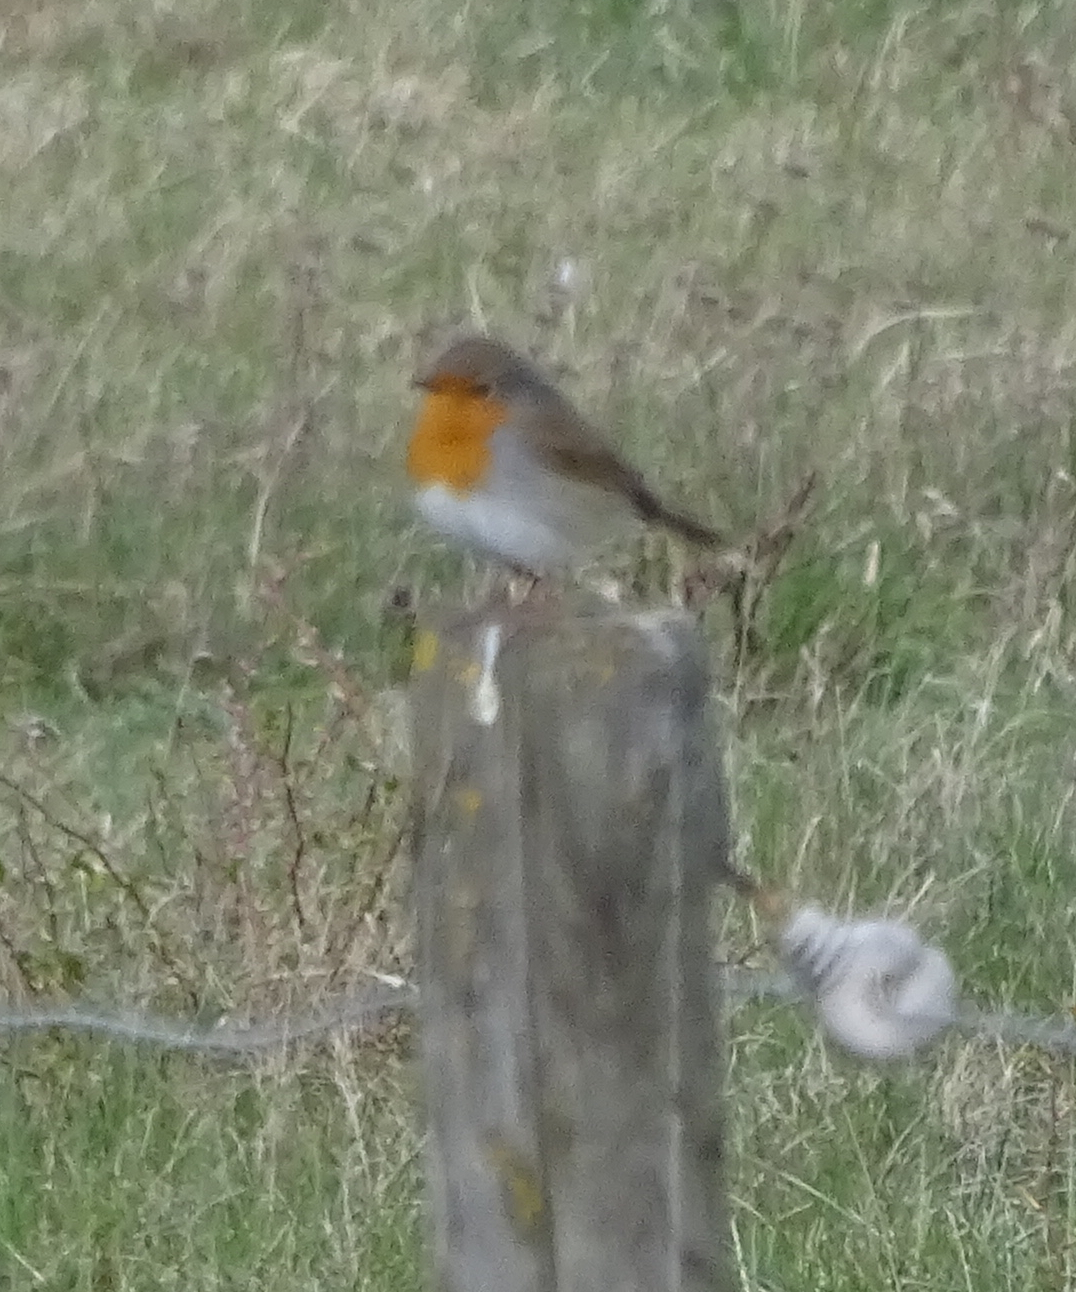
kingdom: Animalia
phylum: Chordata
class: Aves
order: Passeriformes
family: Muscicapidae
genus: Erithacus
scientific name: Erithacus rubecula
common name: European robin
